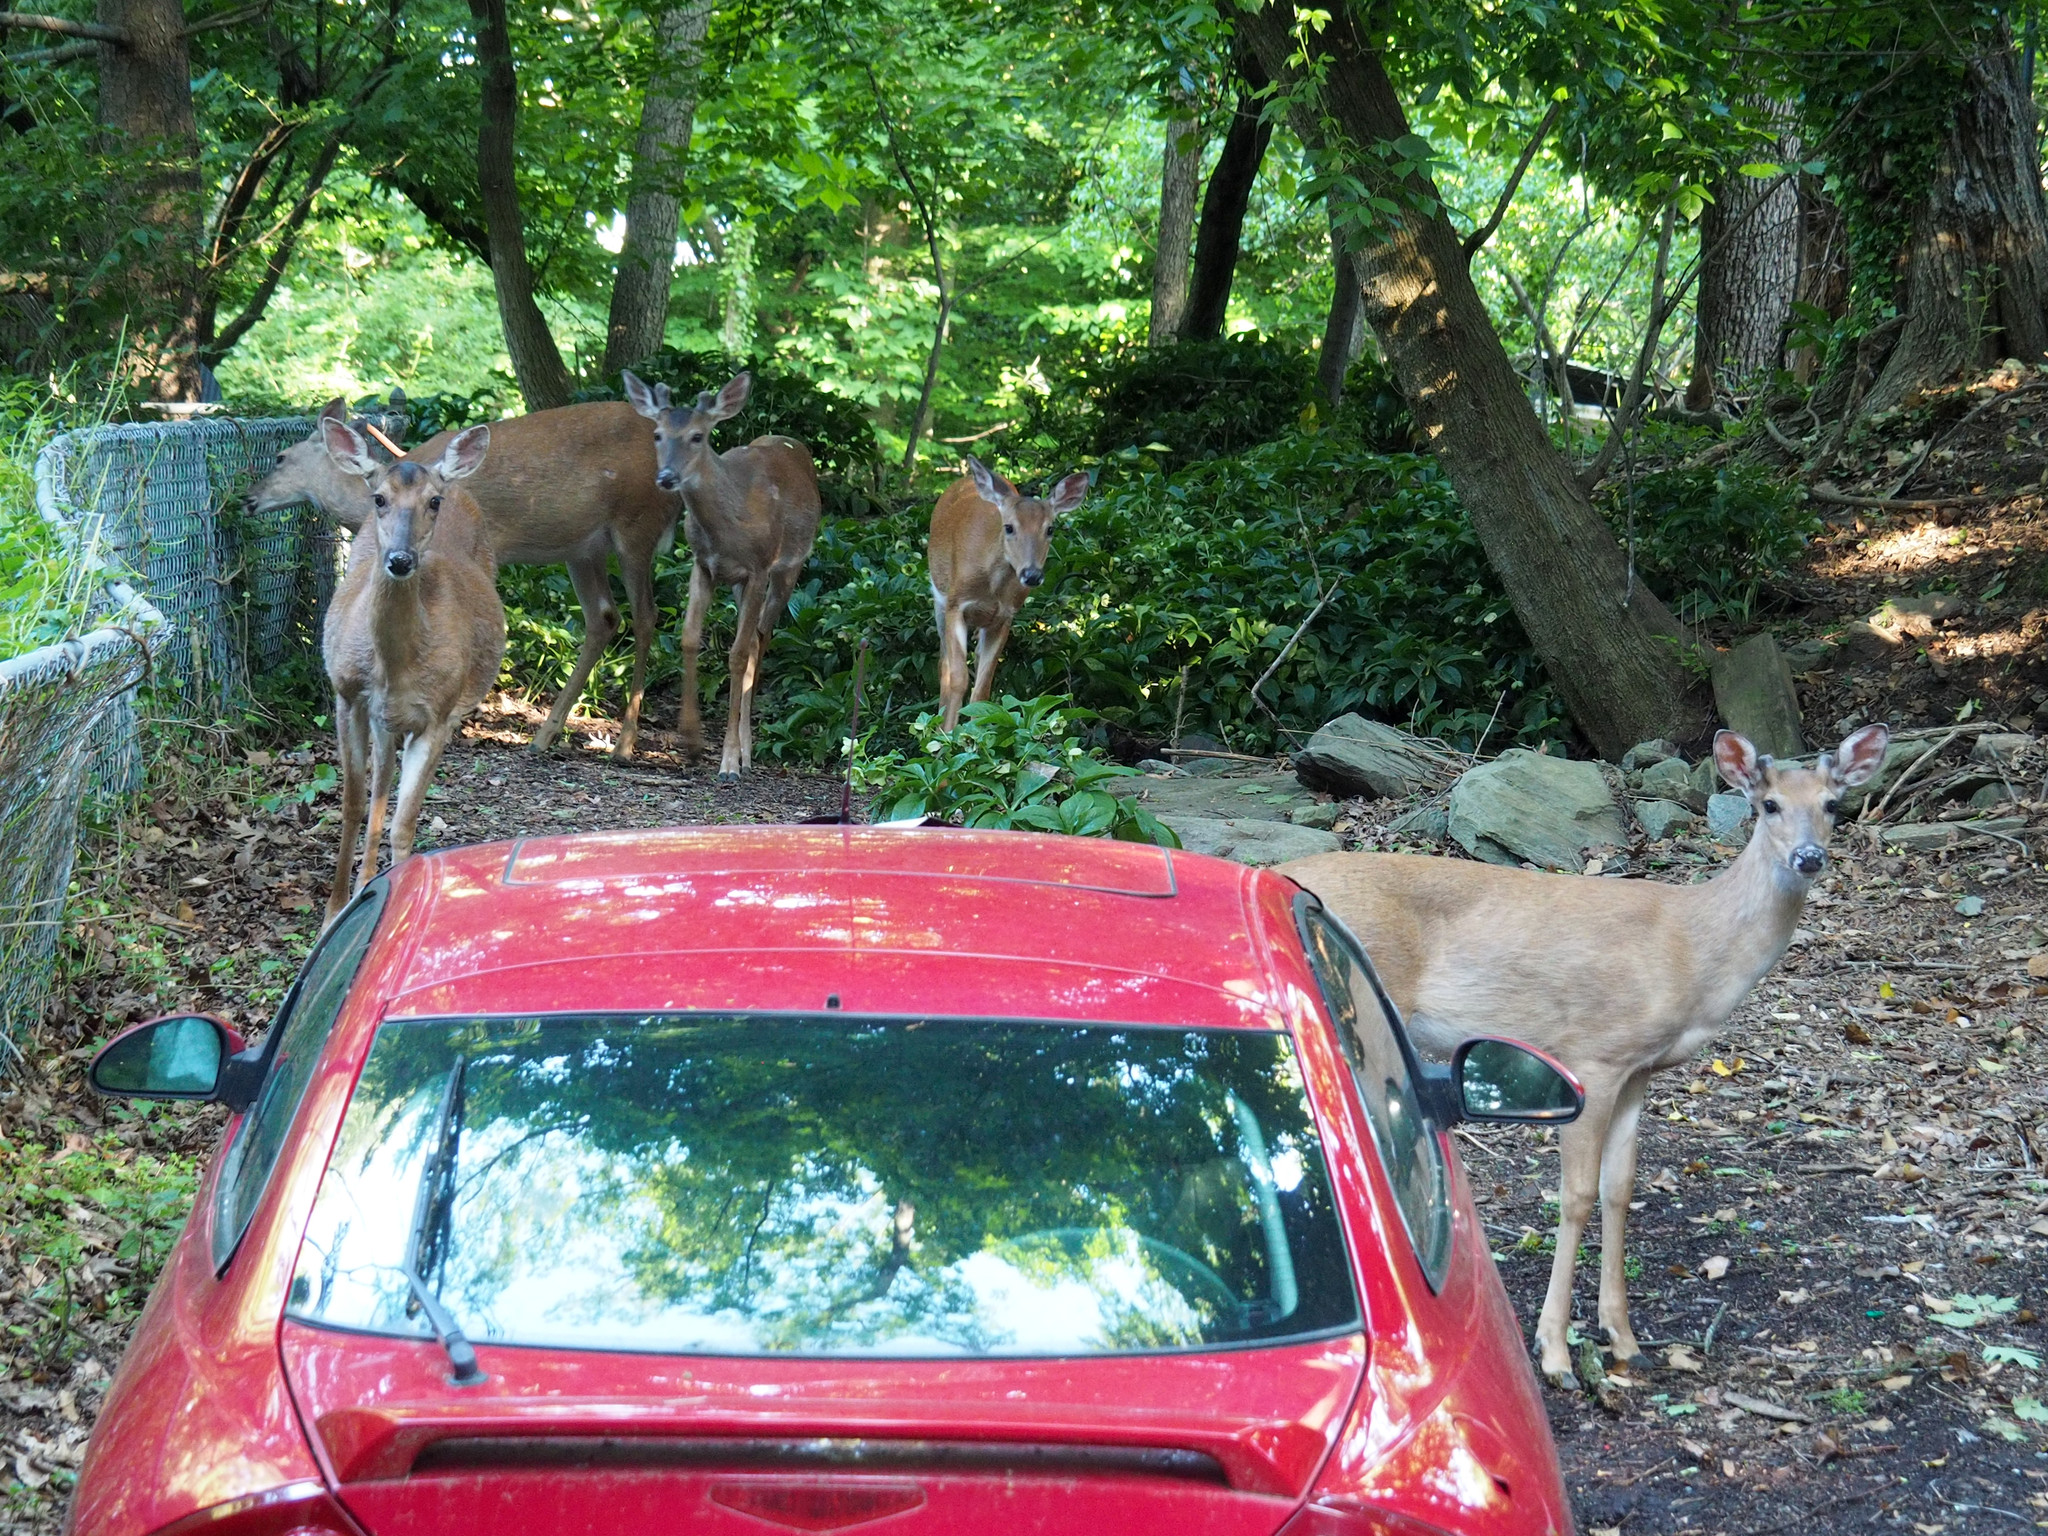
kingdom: Animalia
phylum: Chordata
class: Mammalia
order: Artiodactyla
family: Cervidae
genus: Odocoileus
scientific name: Odocoileus virginianus
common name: White-tailed deer
